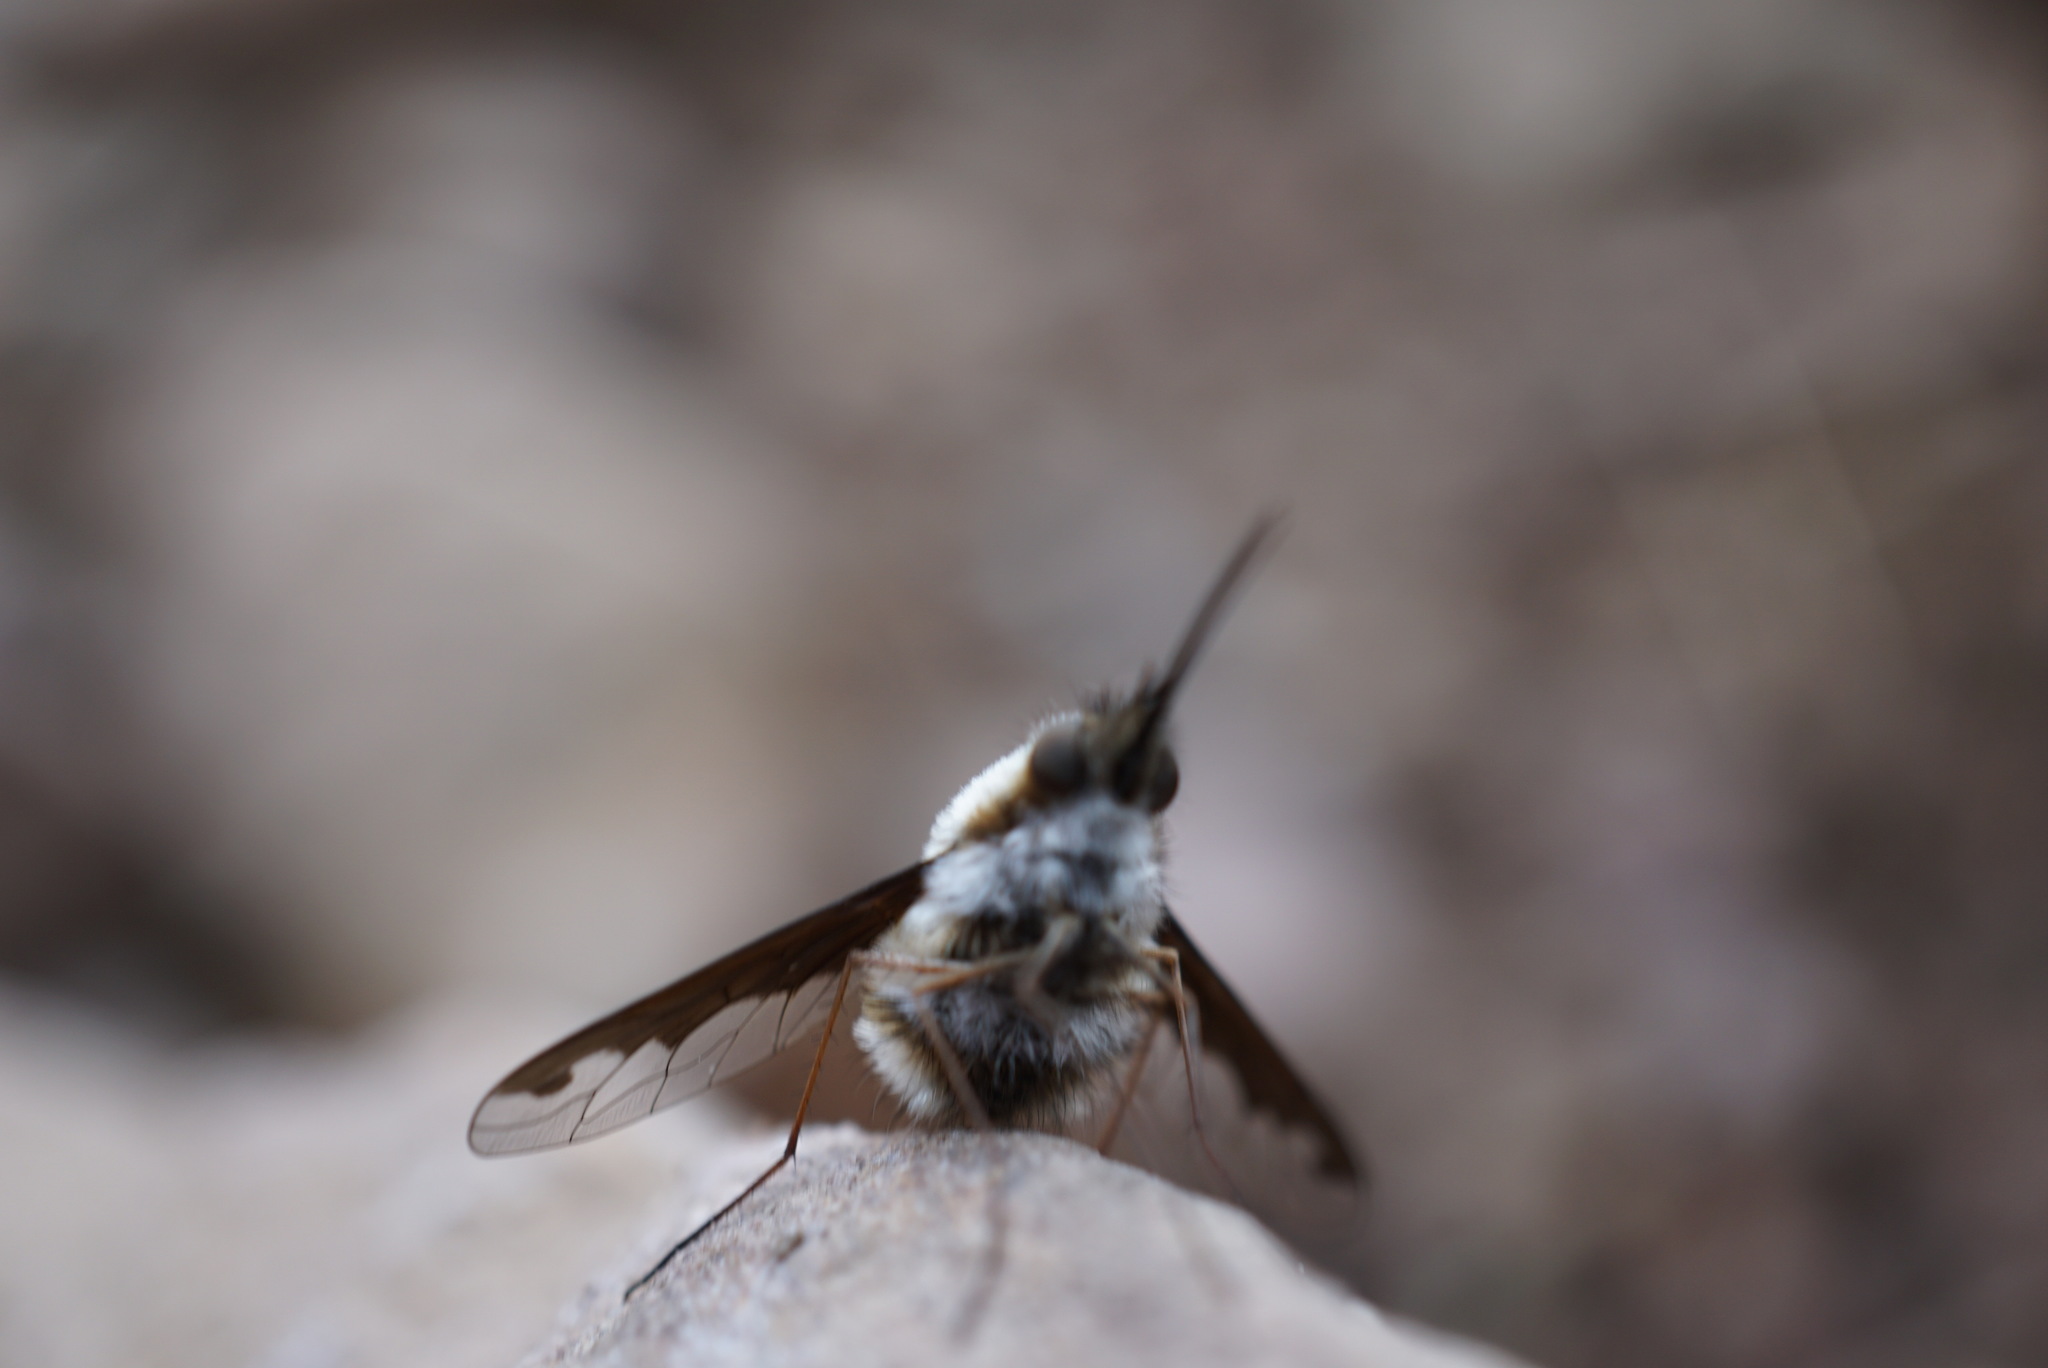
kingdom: Animalia
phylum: Arthropoda
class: Insecta
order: Diptera
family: Bombyliidae
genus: Bombylius
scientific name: Bombylius major
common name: Bee fly
